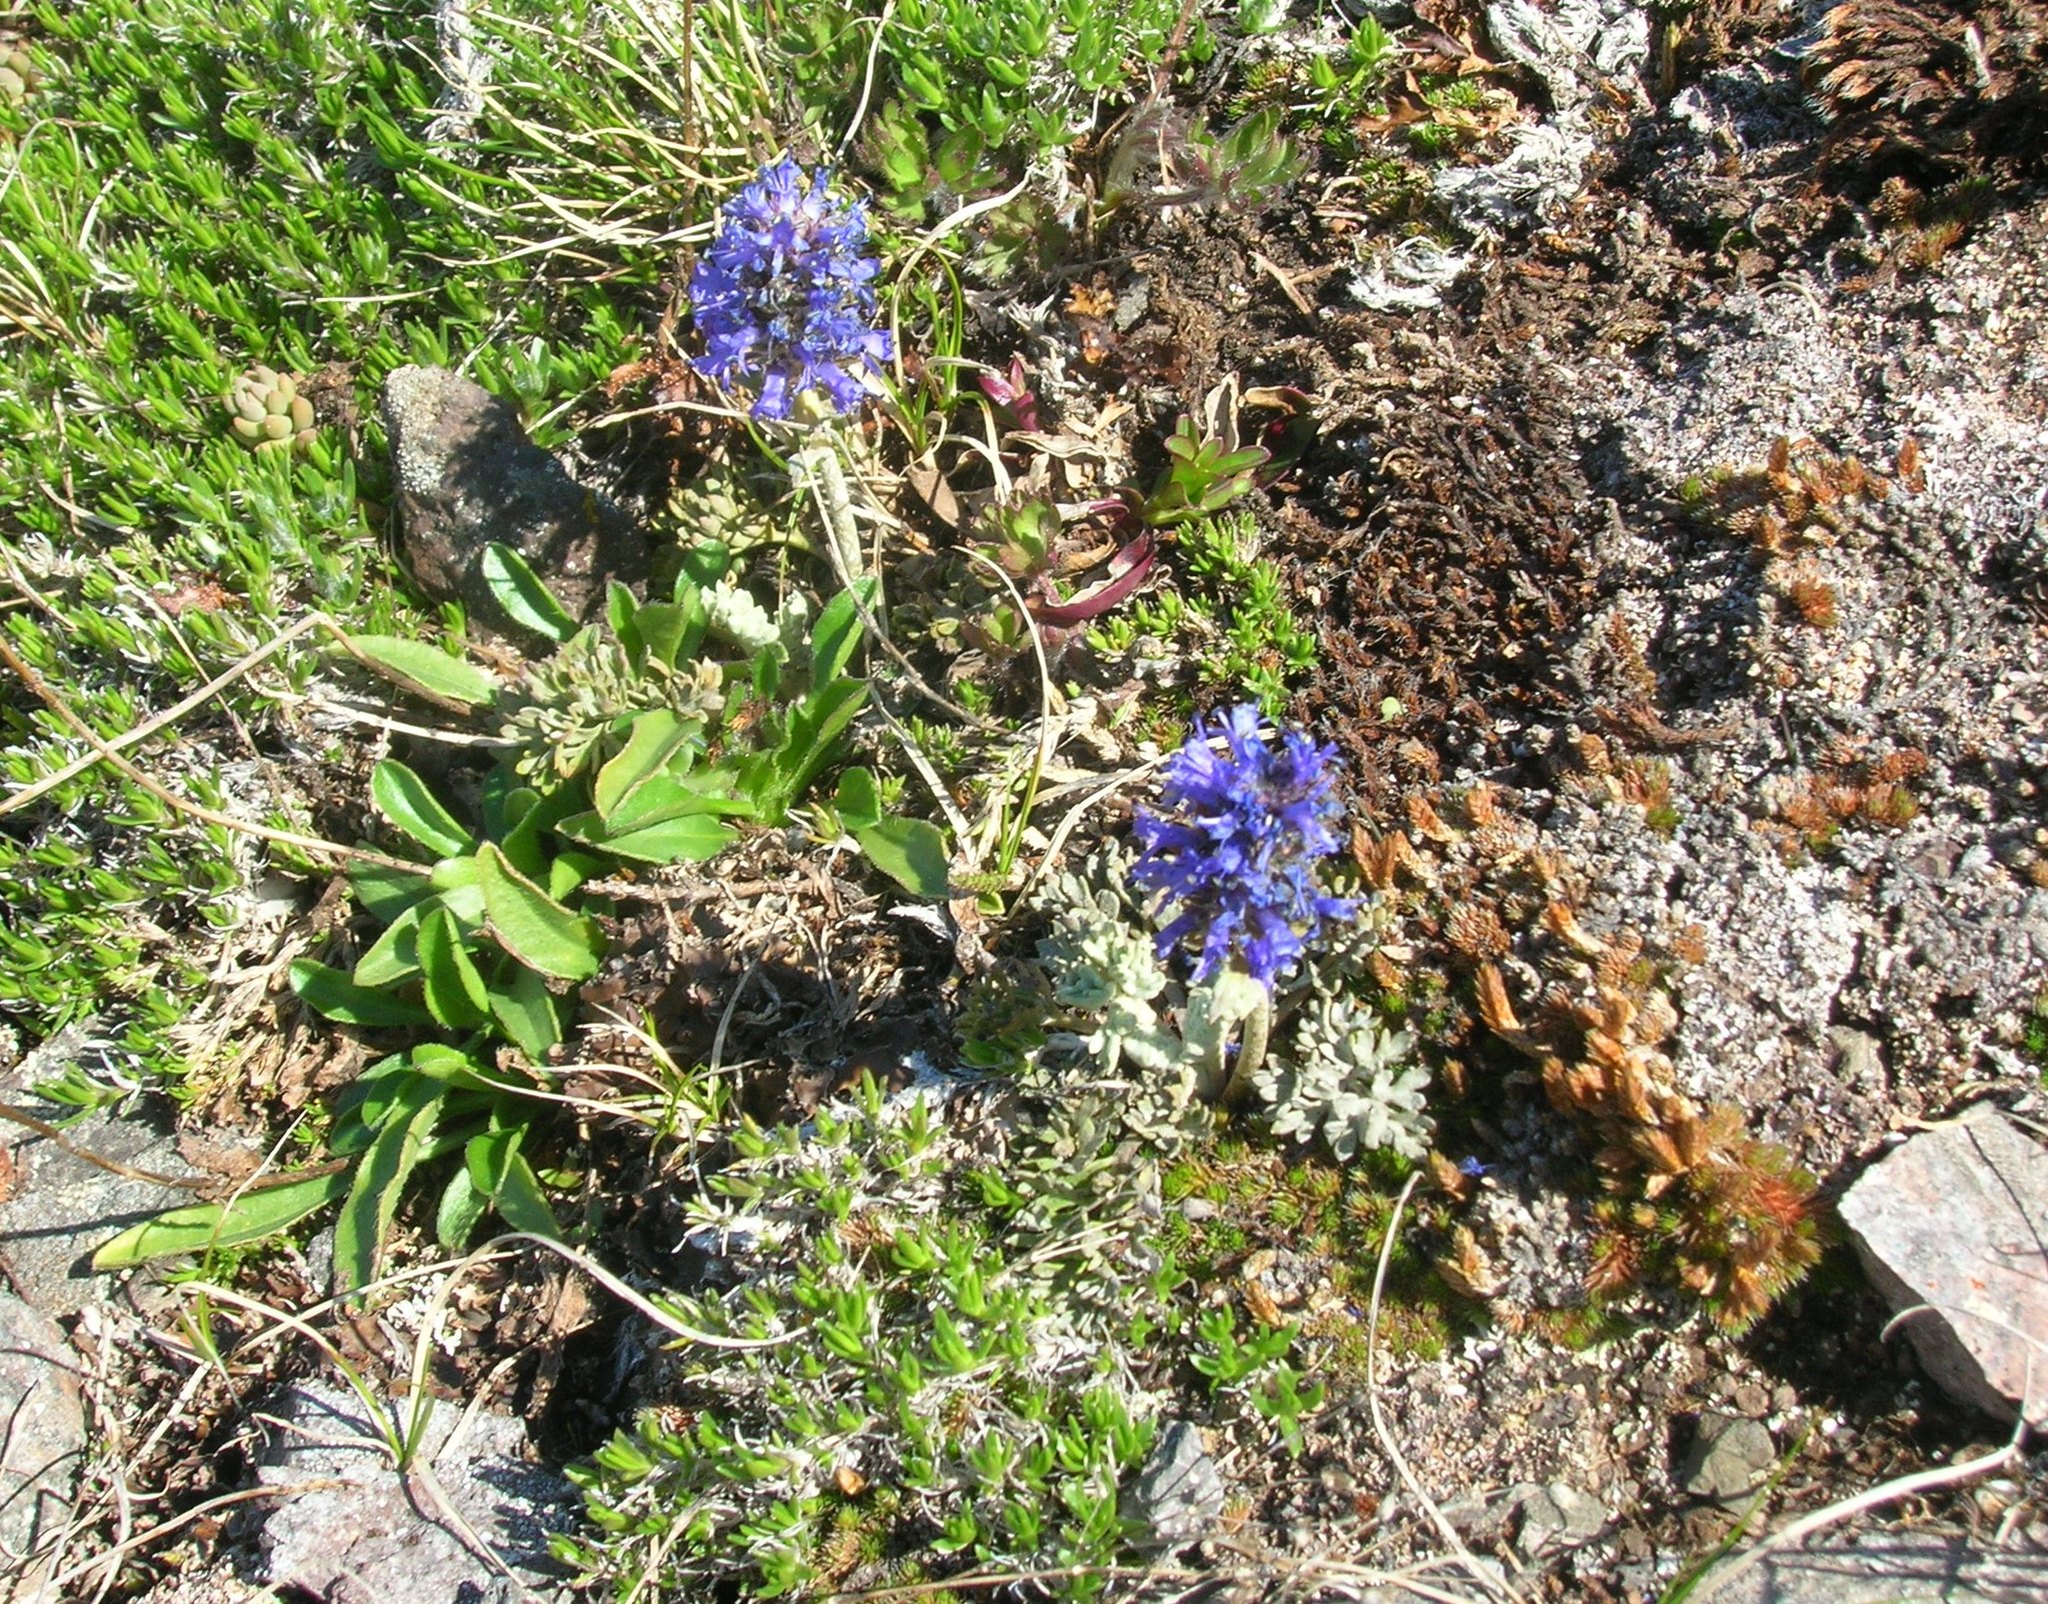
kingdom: Plantae
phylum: Tracheophyta
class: Magnoliopsida
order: Lamiales
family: Plantaginaceae
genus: Synthyris
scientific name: Synthyris lanuginosa
